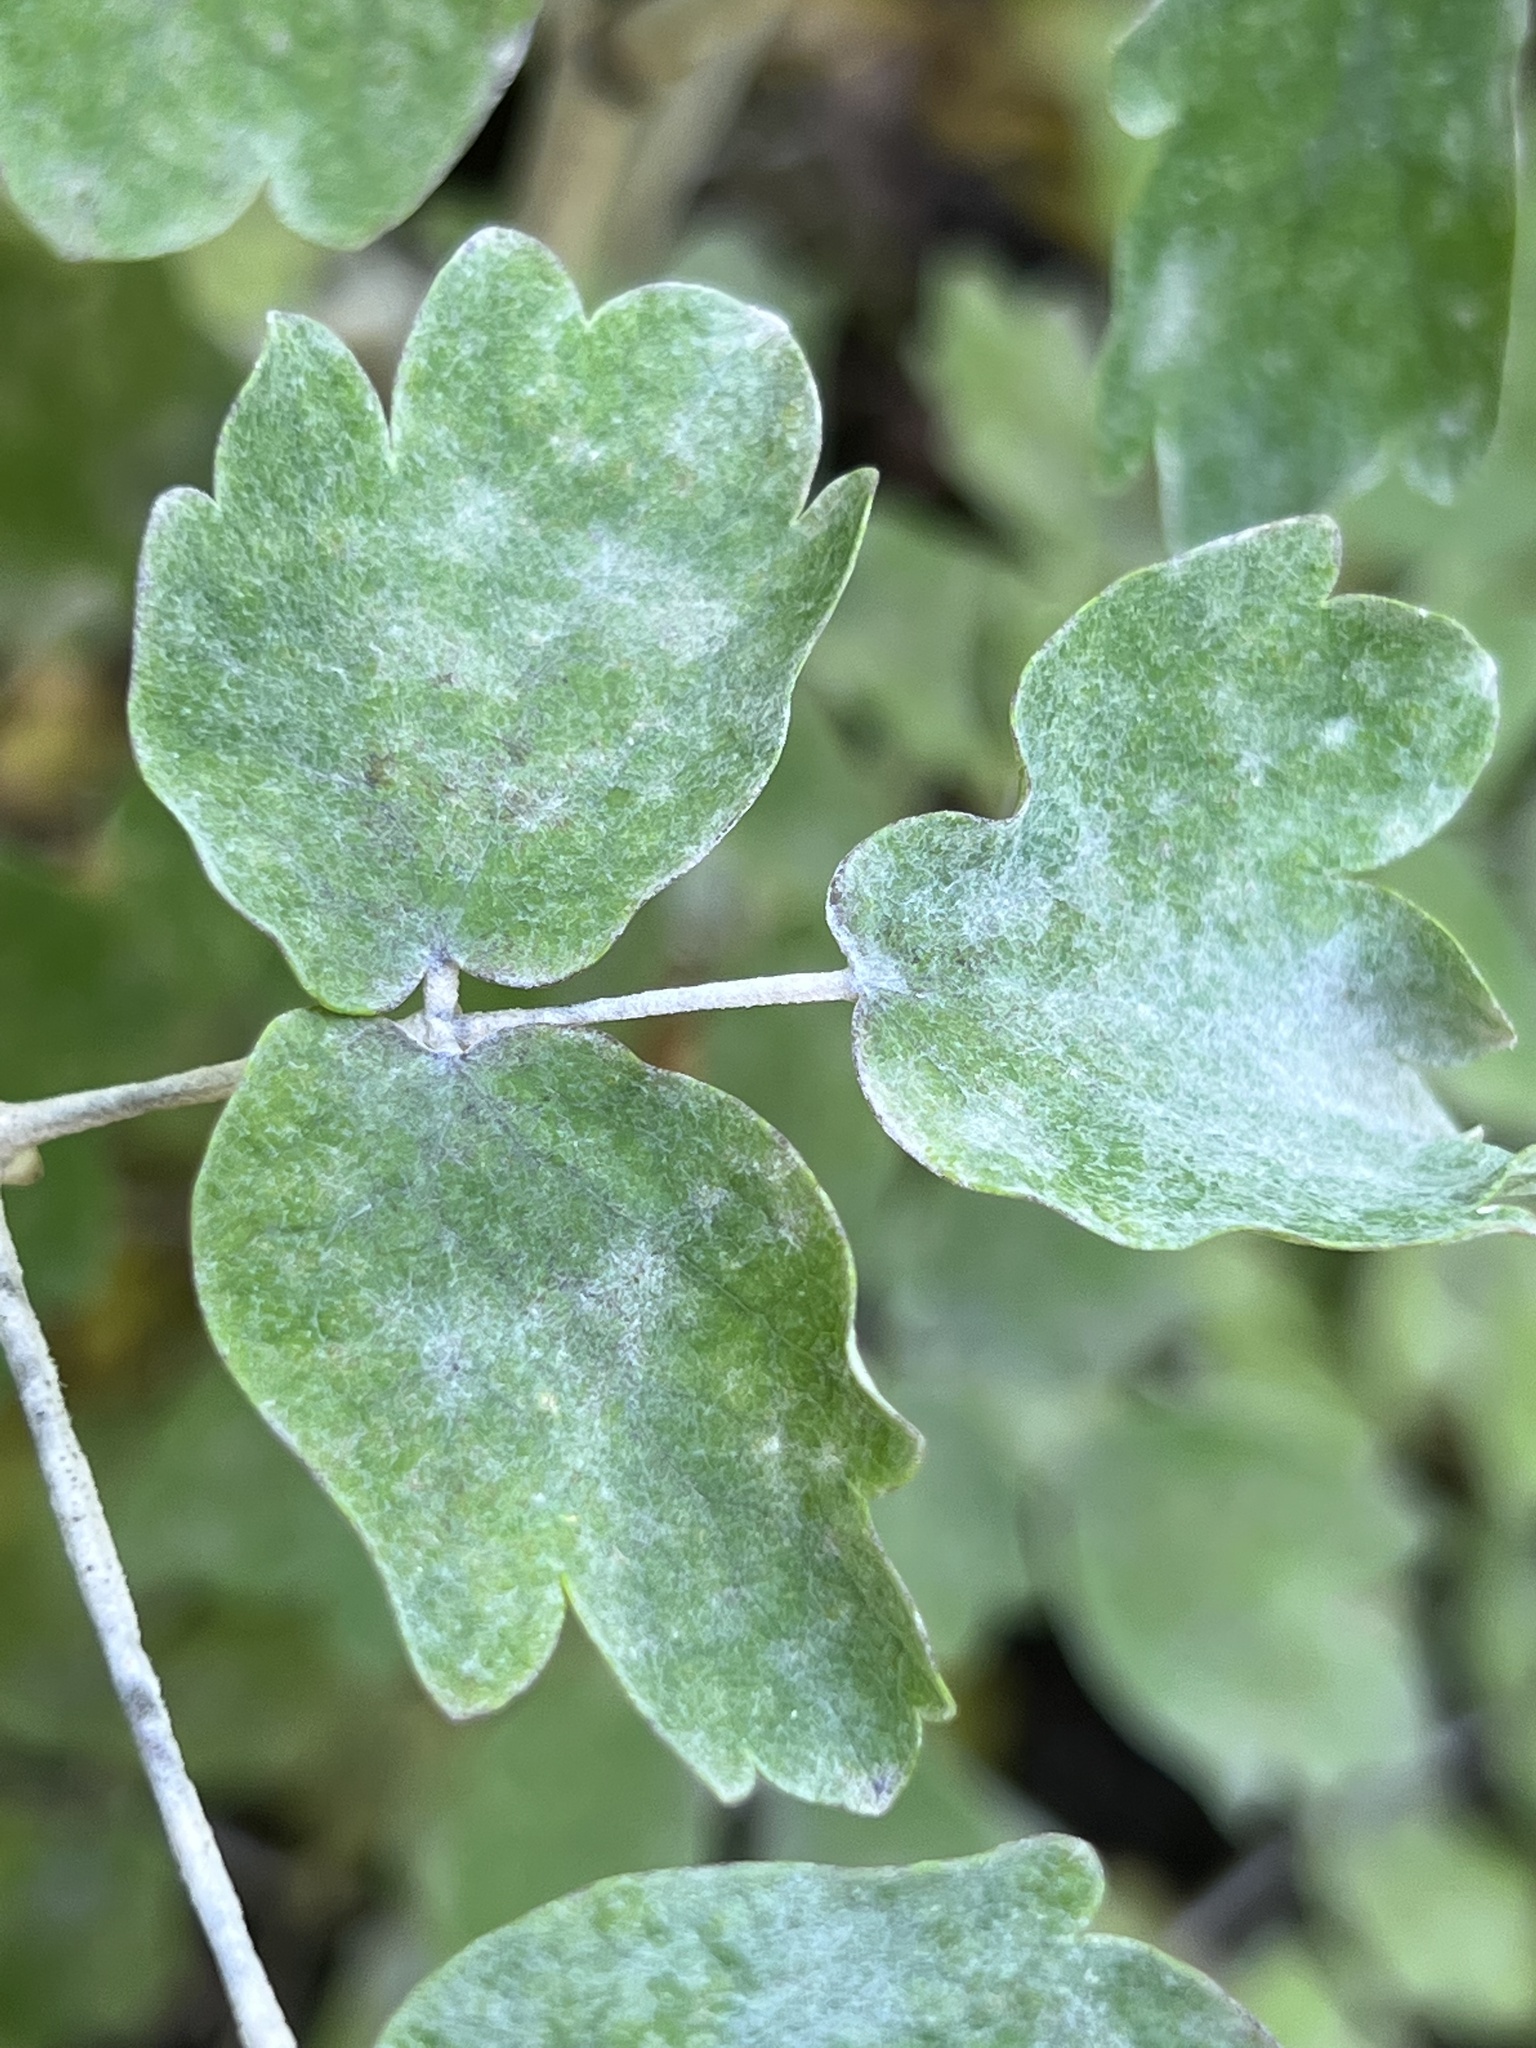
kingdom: Fungi
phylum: Ascomycota
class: Leotiomycetes
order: Helotiales
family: Erysiphaceae
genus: Erysiphe
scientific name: Erysiphe aquilegiae
